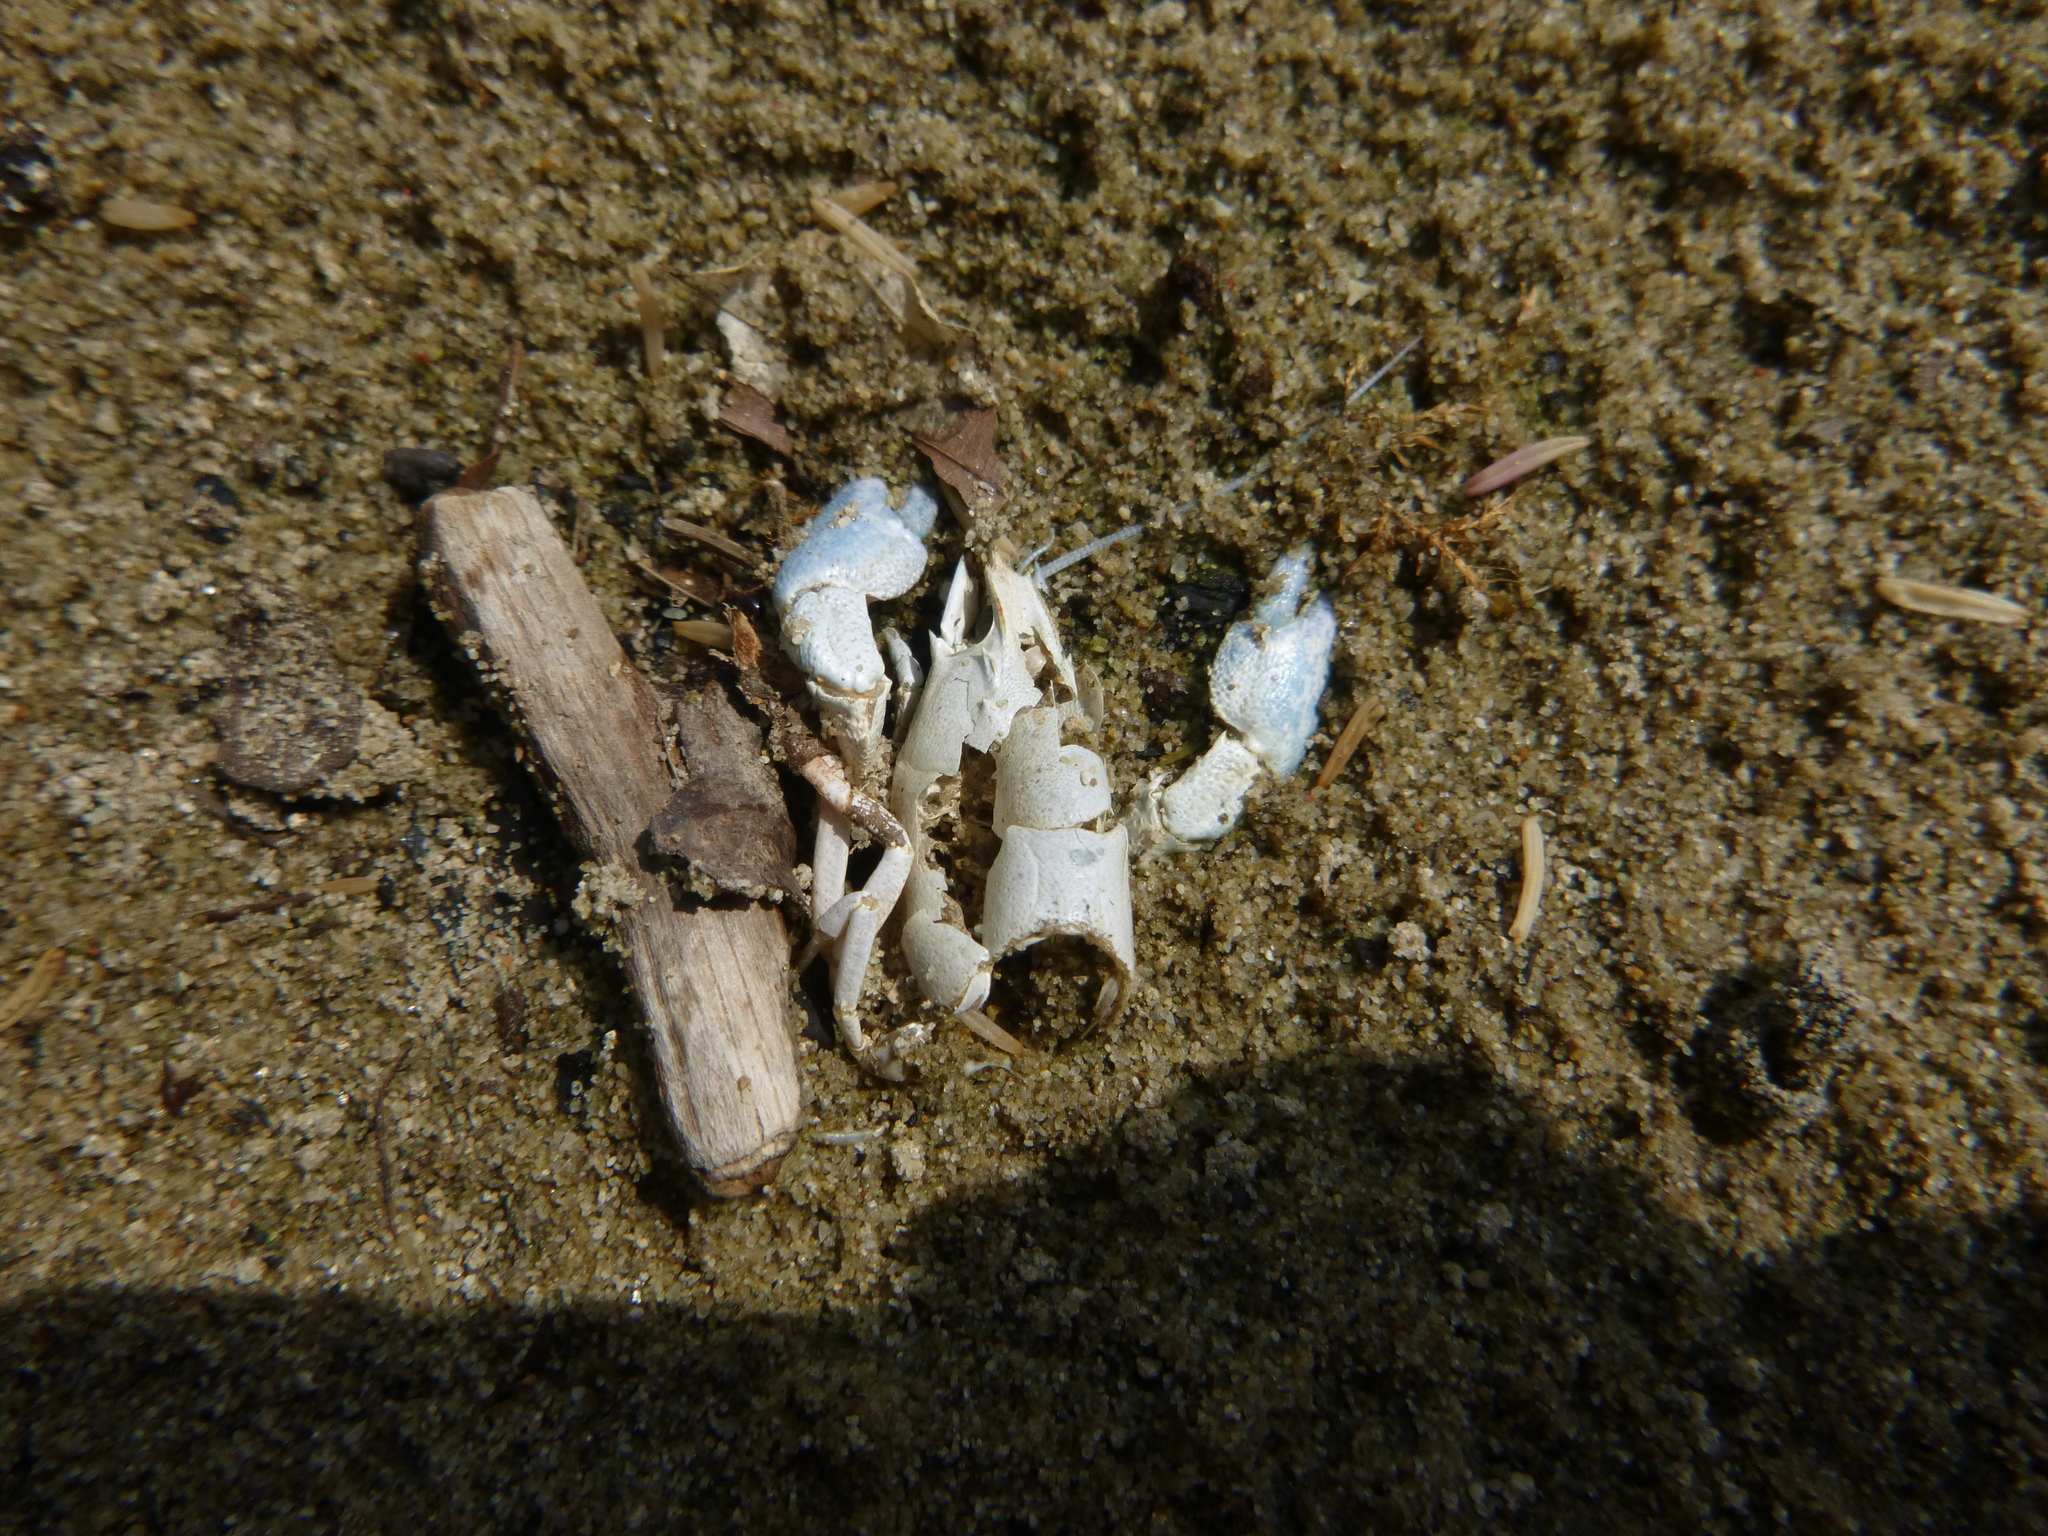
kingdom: Animalia
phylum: Arthropoda
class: Malacostraca
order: Decapoda
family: Astacidae
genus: Pacifastacus
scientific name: Pacifastacus leniusculus
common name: Signal crayfish
